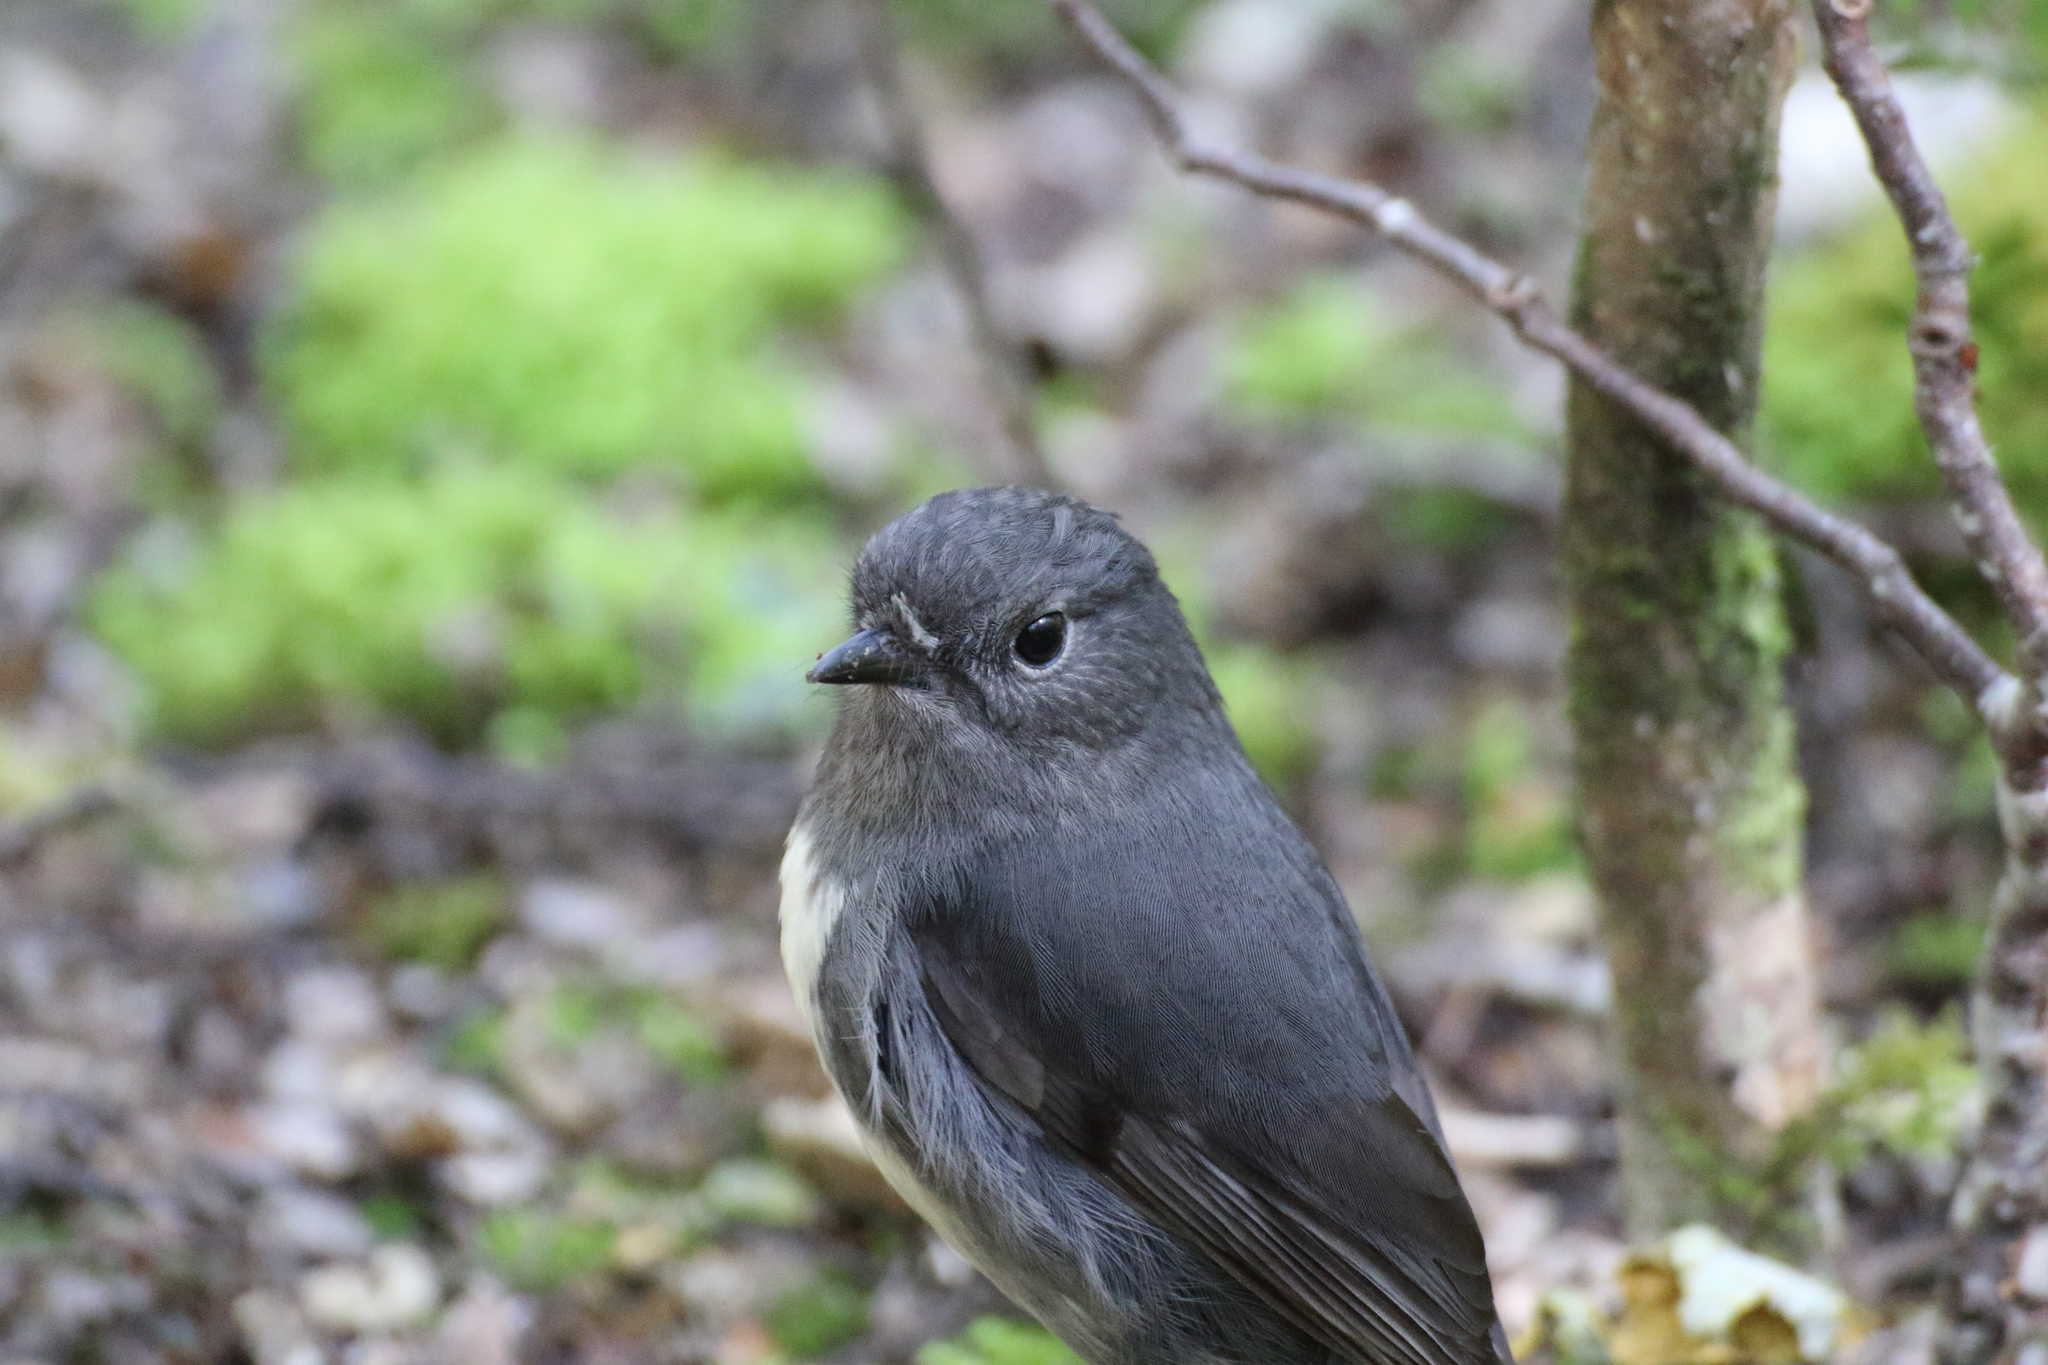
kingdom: Animalia
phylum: Chordata
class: Aves
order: Passeriformes
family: Petroicidae
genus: Petroica
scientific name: Petroica australis
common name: New zealand robin
